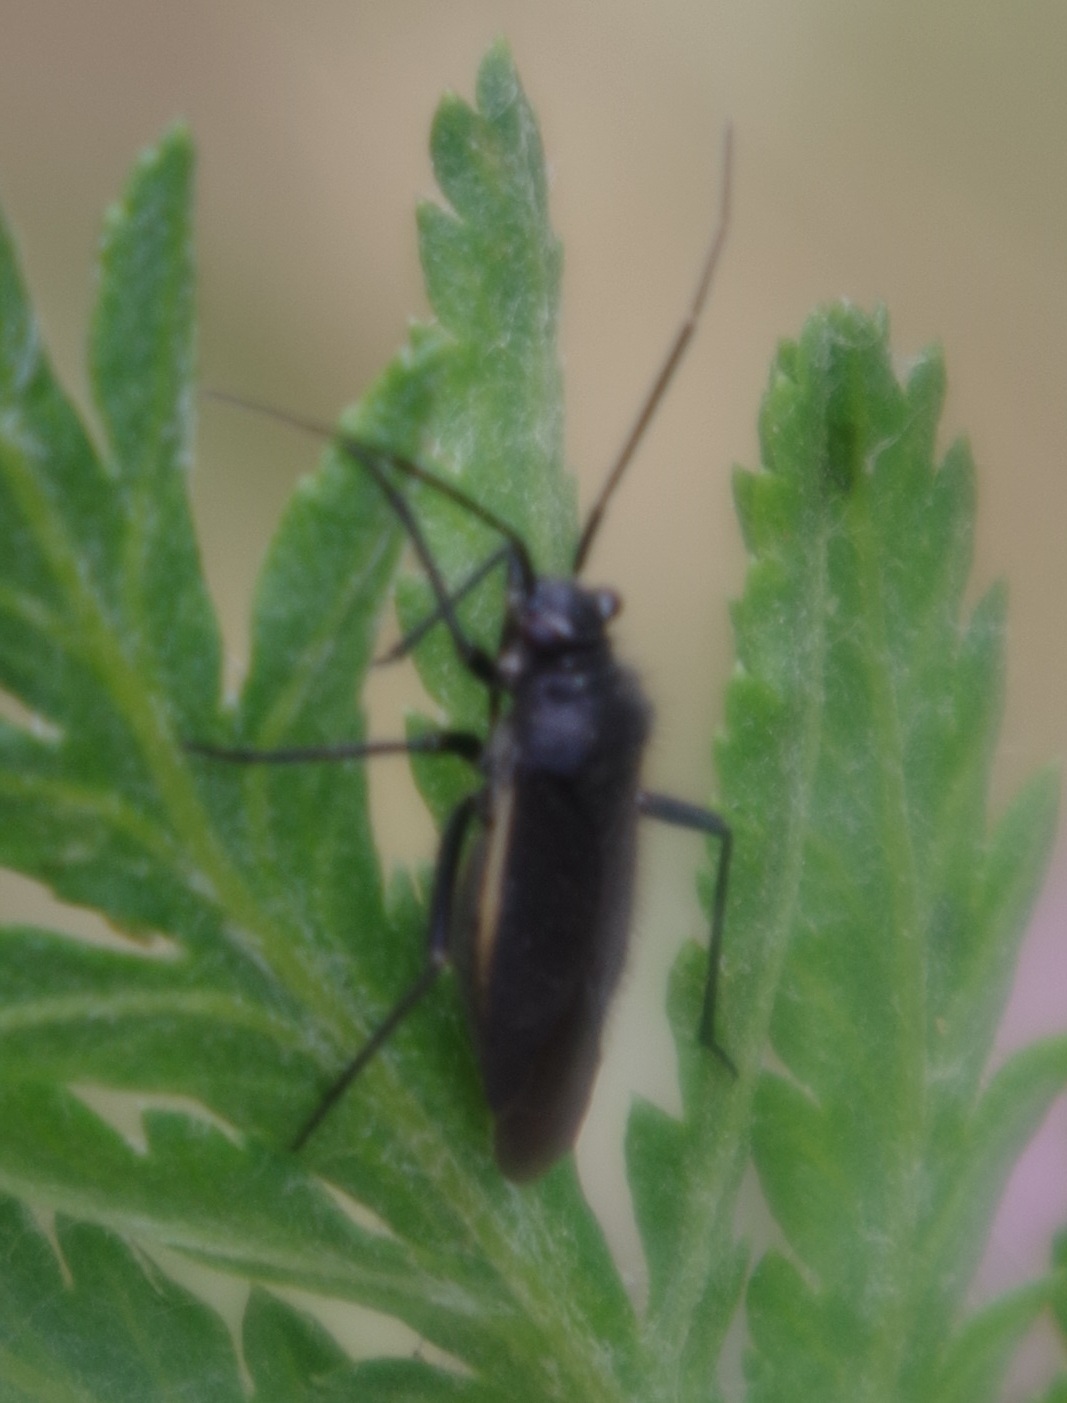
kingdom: Animalia
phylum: Arthropoda
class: Insecta
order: Hemiptera
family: Miridae
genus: Capsodes
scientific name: Capsodes gothicus
